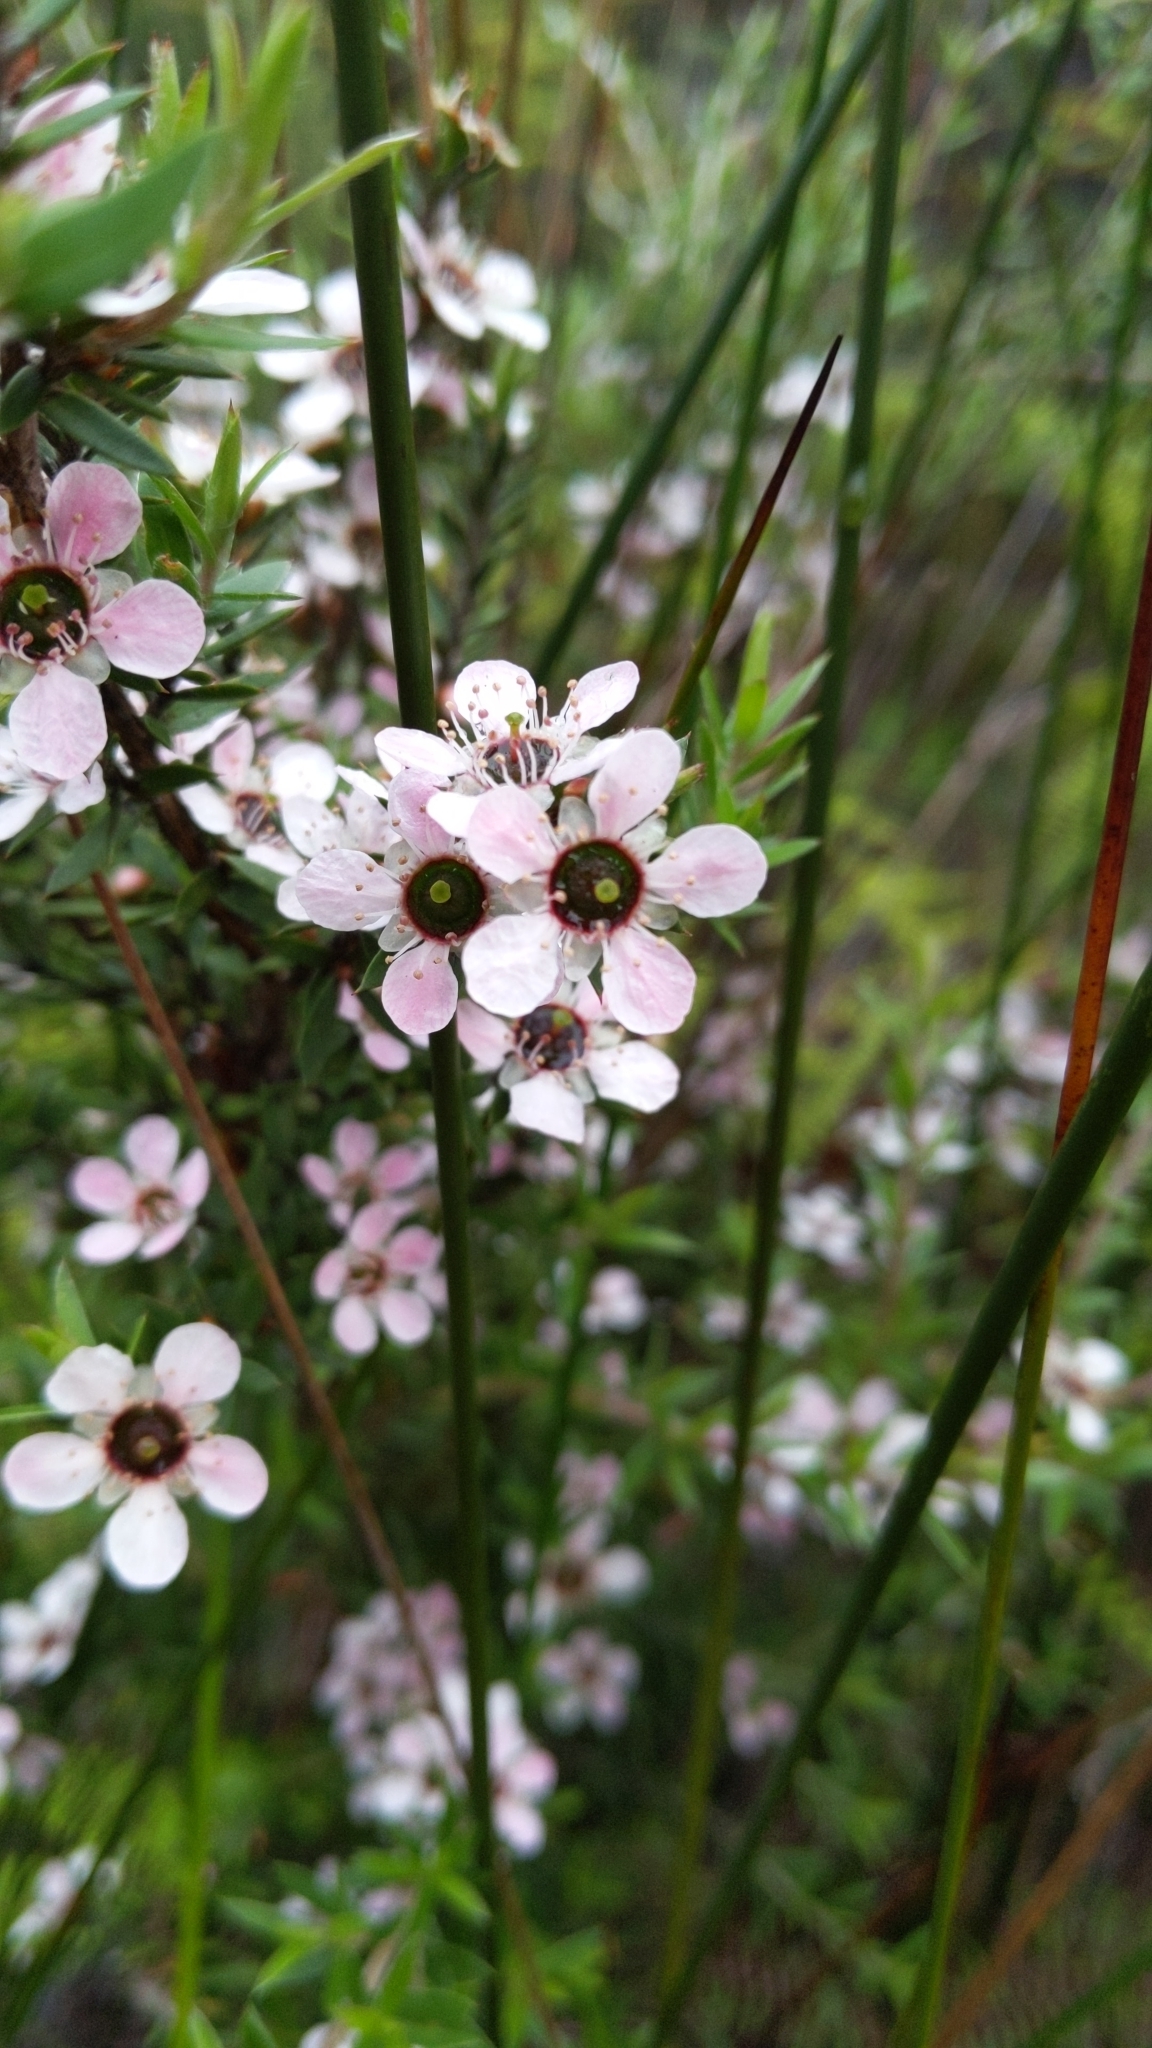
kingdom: Plantae
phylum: Tracheophyta
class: Magnoliopsida
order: Myrtales
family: Myrtaceae
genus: Leptospermum
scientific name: Leptospermum scoparium
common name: Broom tea-tree
